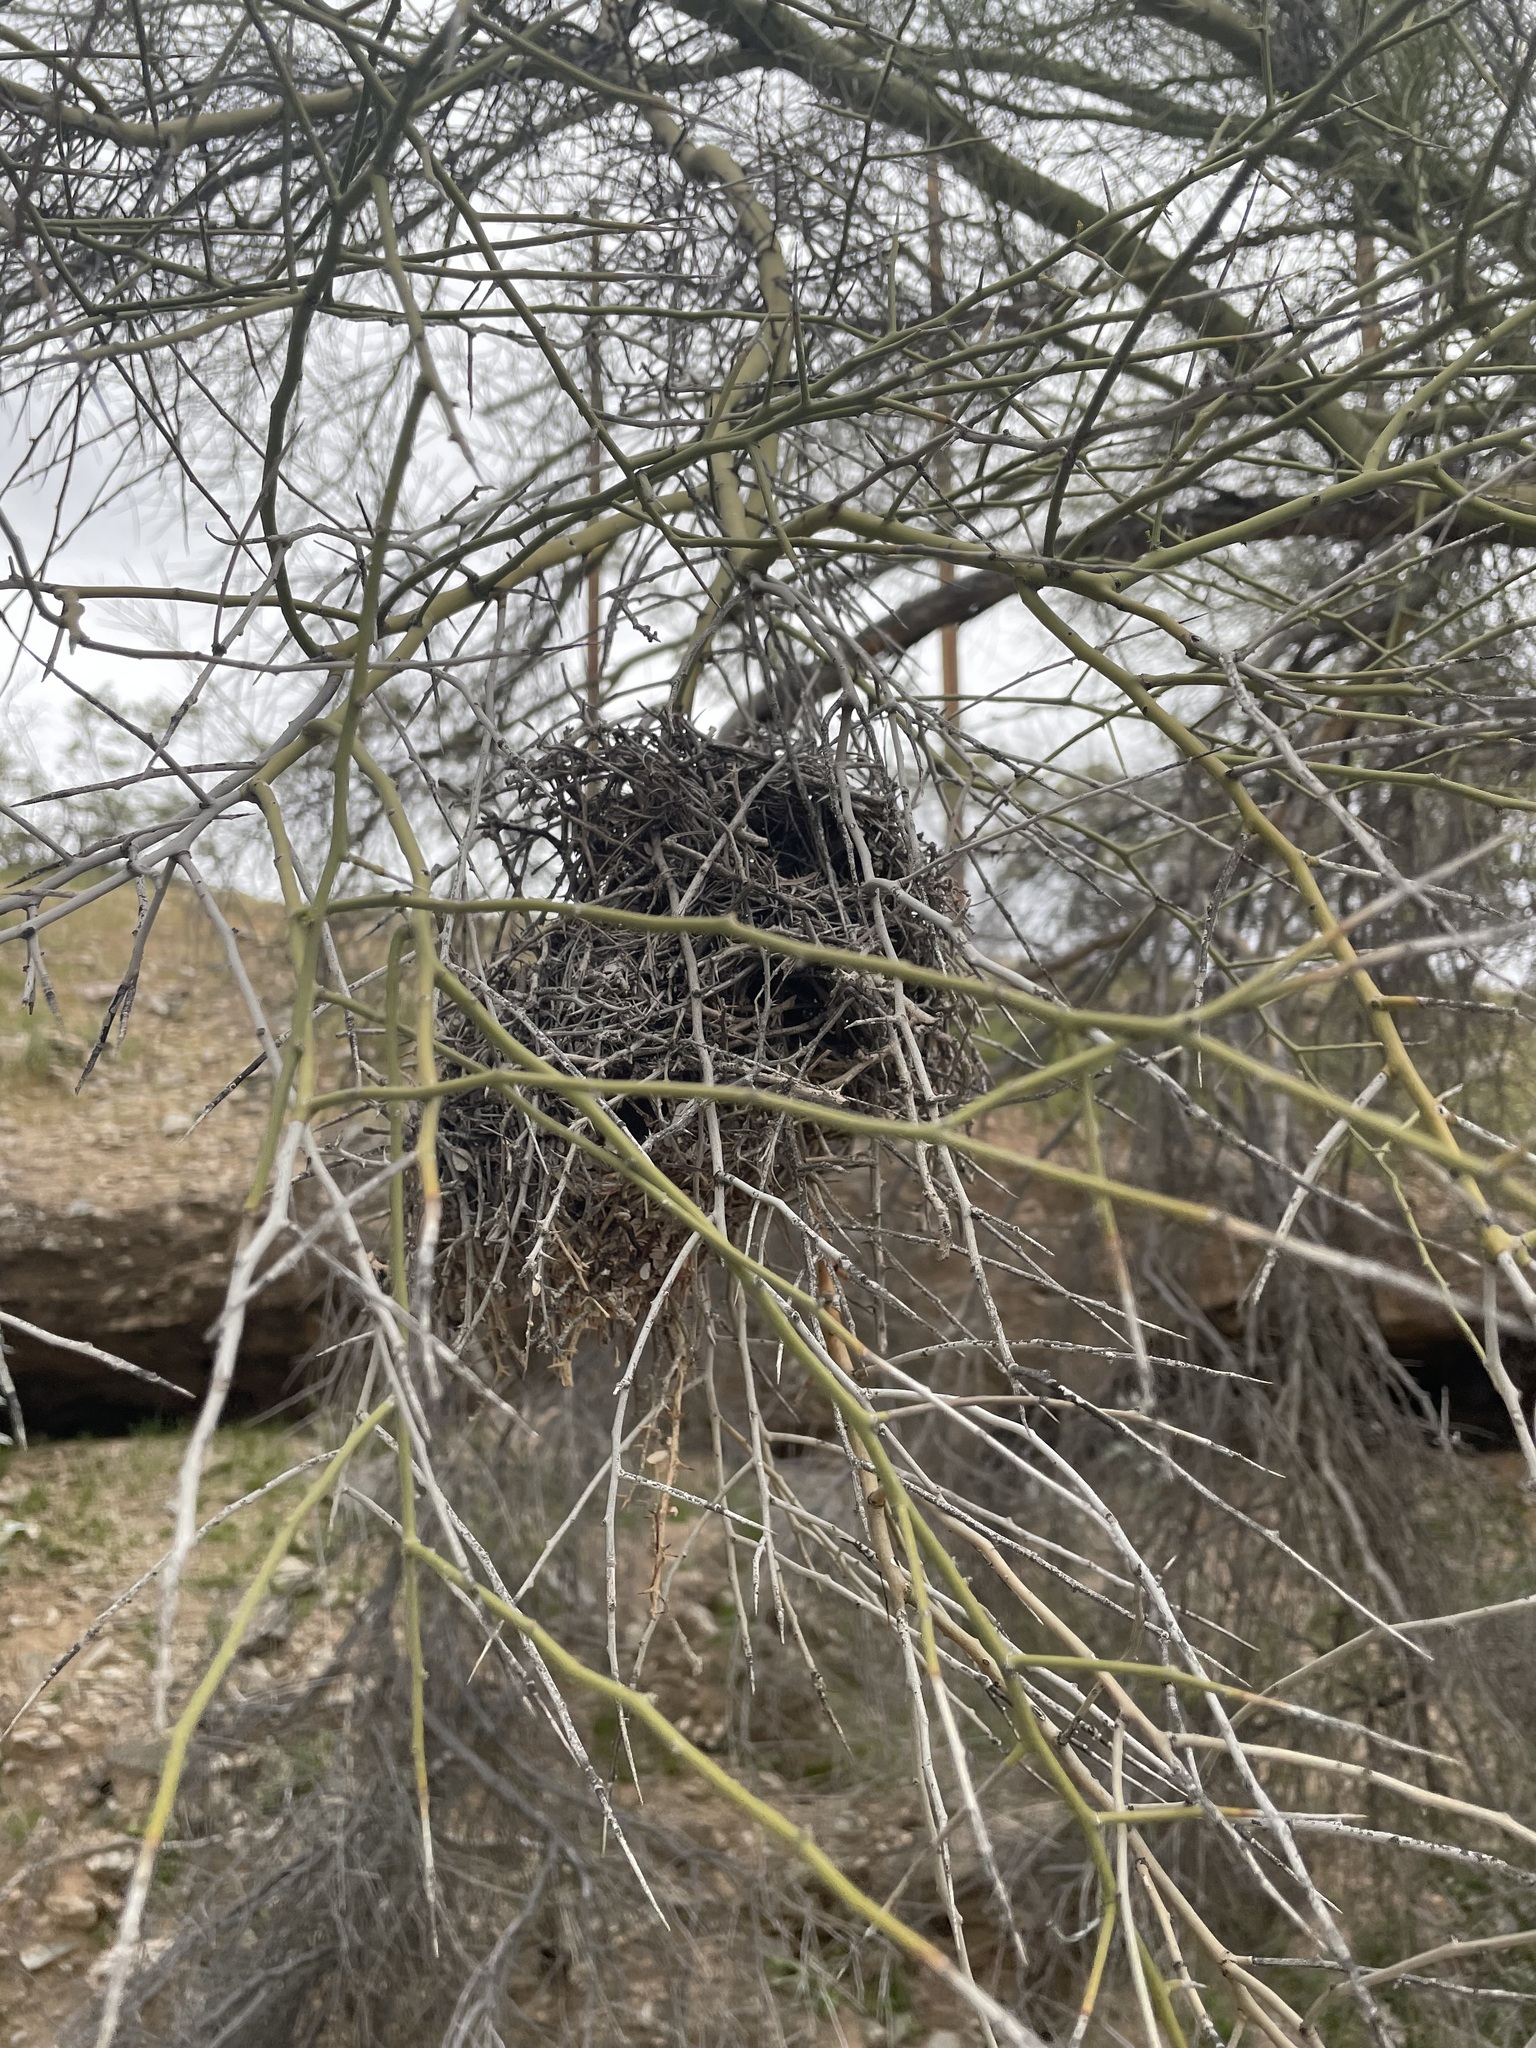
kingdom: Animalia
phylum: Chordata
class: Aves
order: Passeriformes
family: Remizidae
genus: Auriparus
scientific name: Auriparus flaviceps
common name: Verdin
